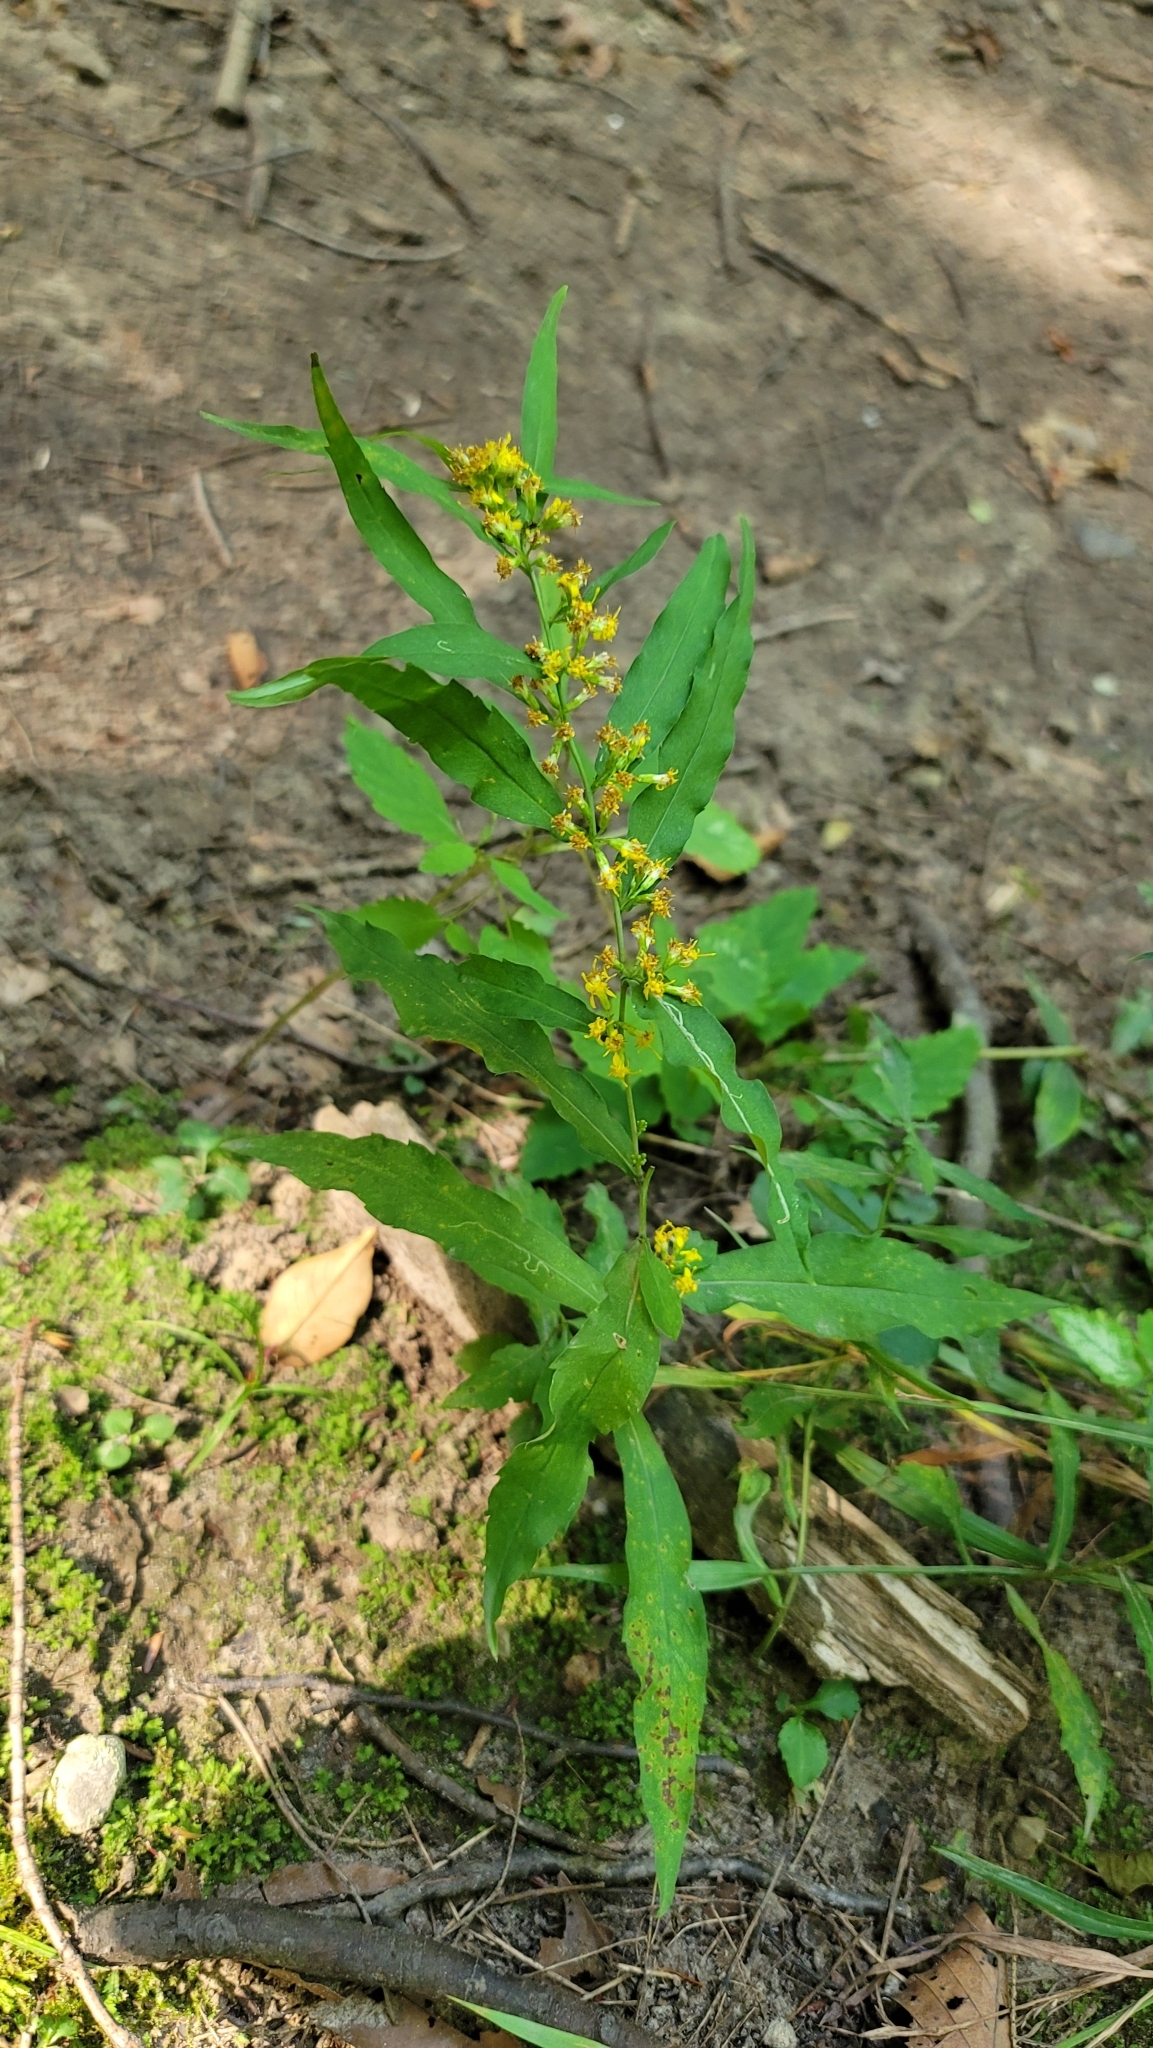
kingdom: Plantae
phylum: Tracheophyta
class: Magnoliopsida
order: Asterales
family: Asteraceae
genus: Solidago
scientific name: Solidago caesia
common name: Woodland goldenrod
